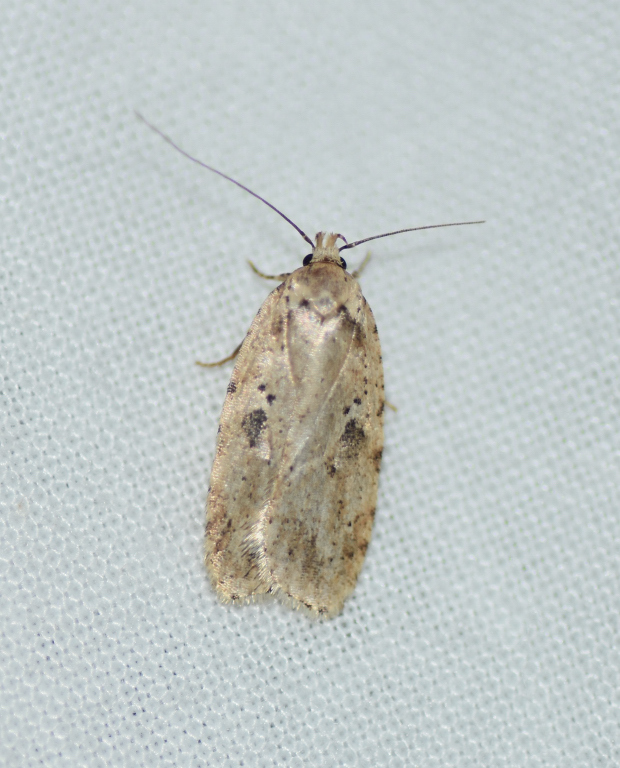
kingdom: Animalia
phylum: Arthropoda
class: Insecta
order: Lepidoptera
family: Depressariidae
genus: Agonopterix
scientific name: Agonopterix canadensis
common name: Canadian agonopterix moth
